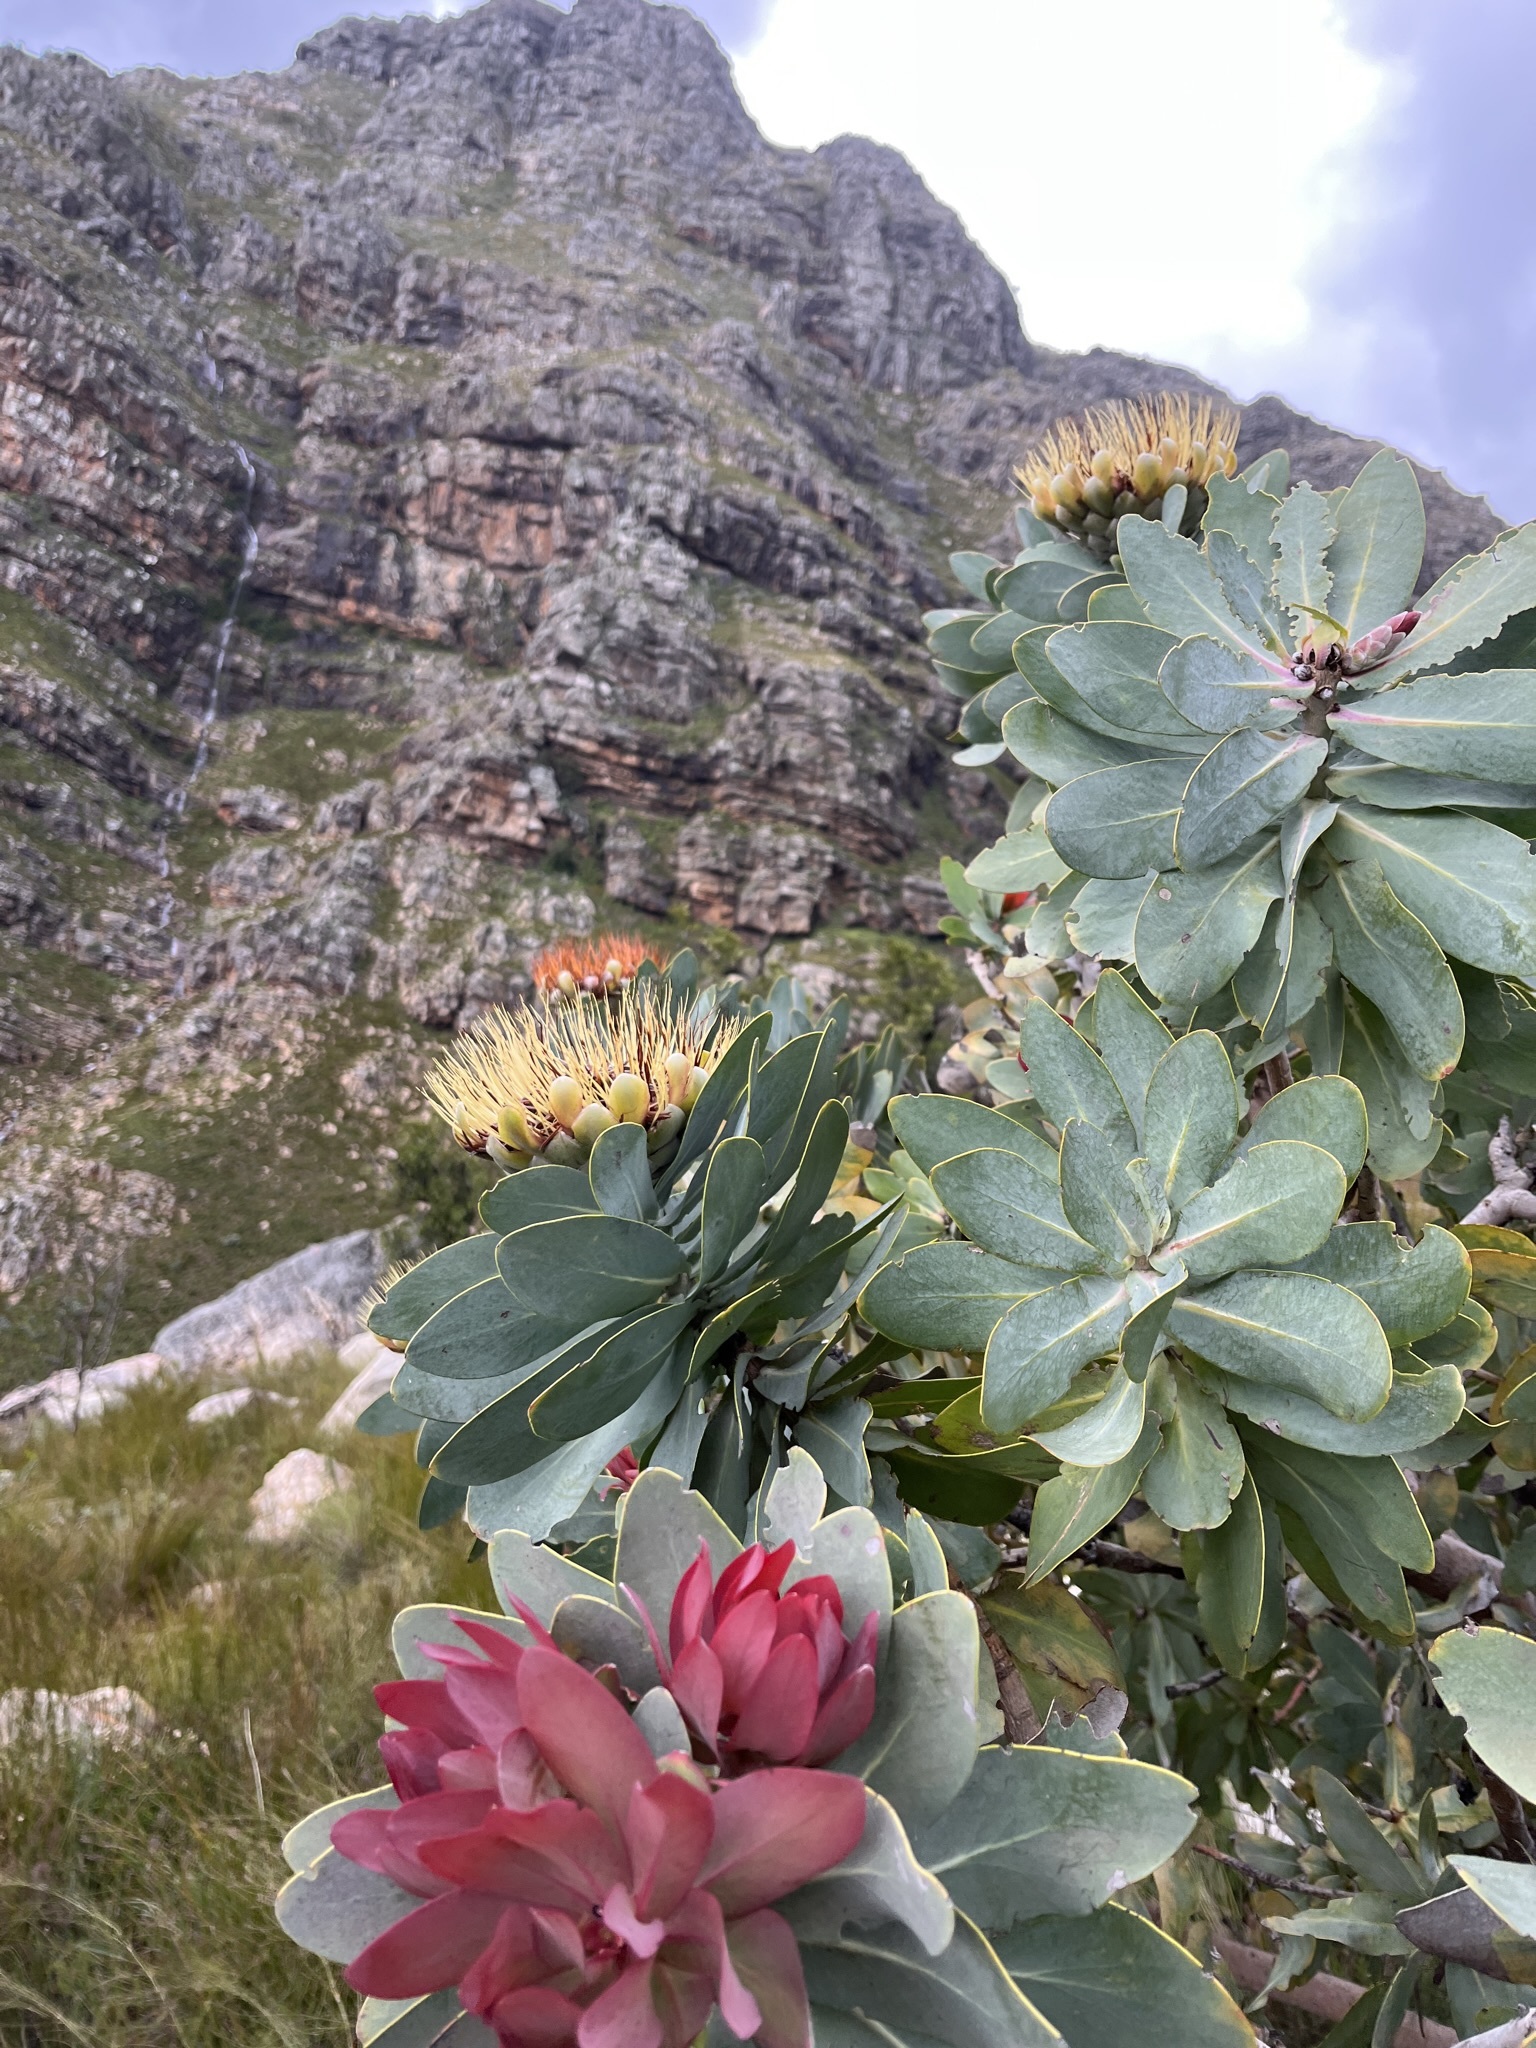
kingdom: Plantae
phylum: Tracheophyta
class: Magnoliopsida
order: Proteales
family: Proteaceae
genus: Protea
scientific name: Protea nitida
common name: Tree protea
